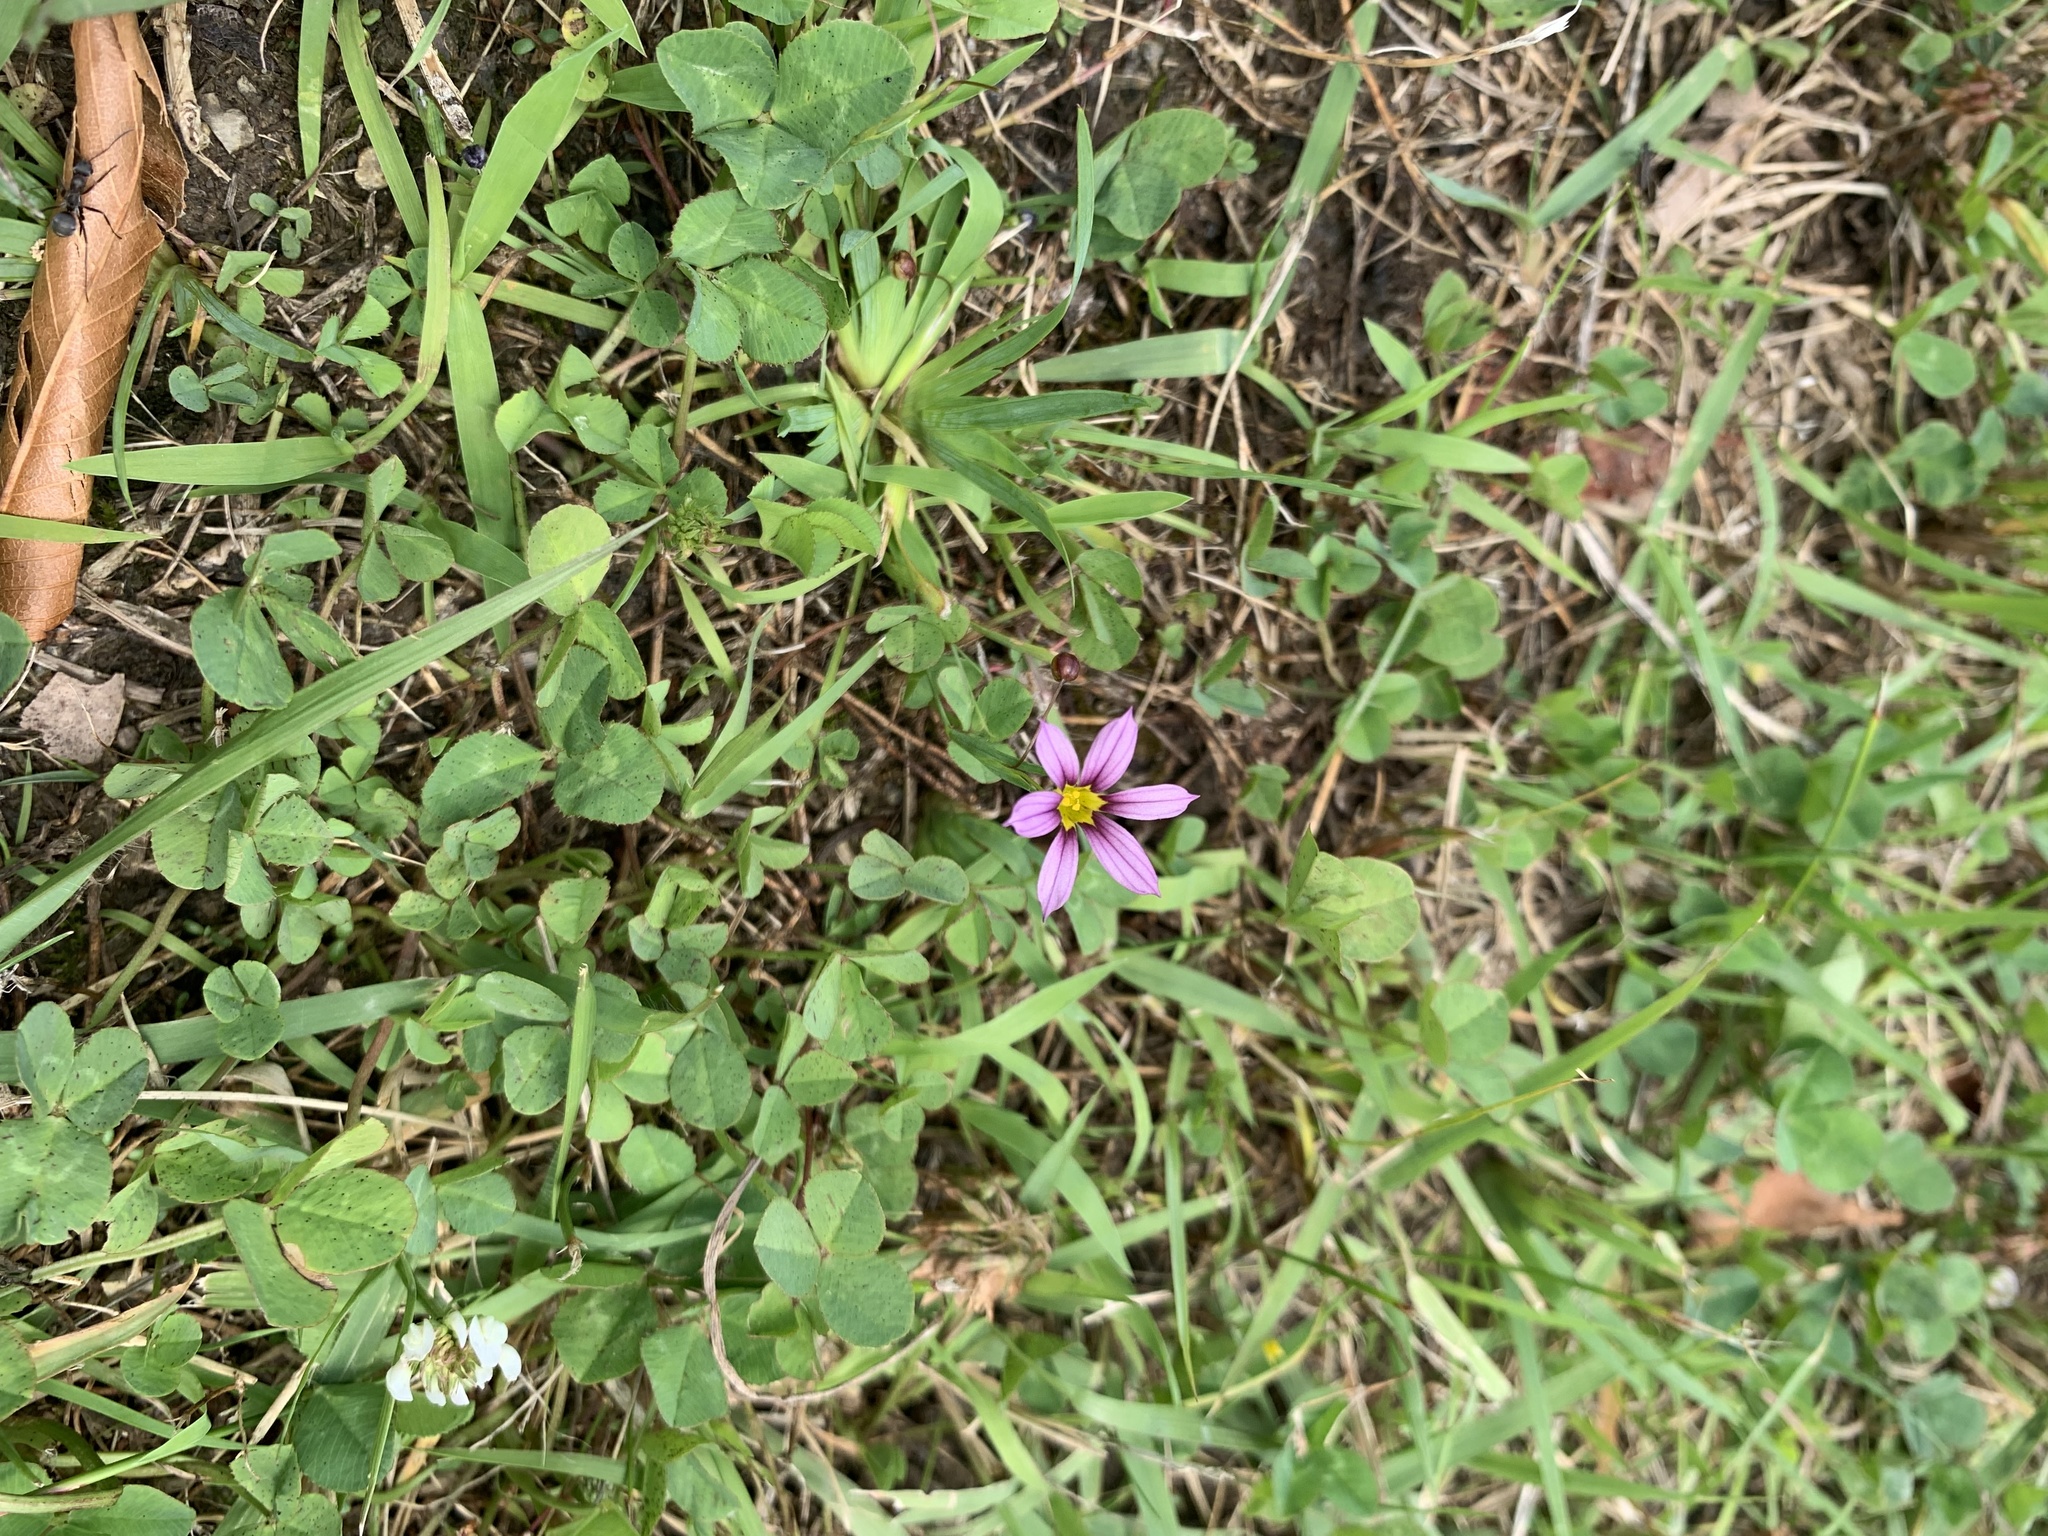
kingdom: Plantae
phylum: Tracheophyta
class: Liliopsida
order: Asparagales
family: Iridaceae
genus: Sisyrinchium
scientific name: Sisyrinchium micranthum
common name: Bermuda pigroot
